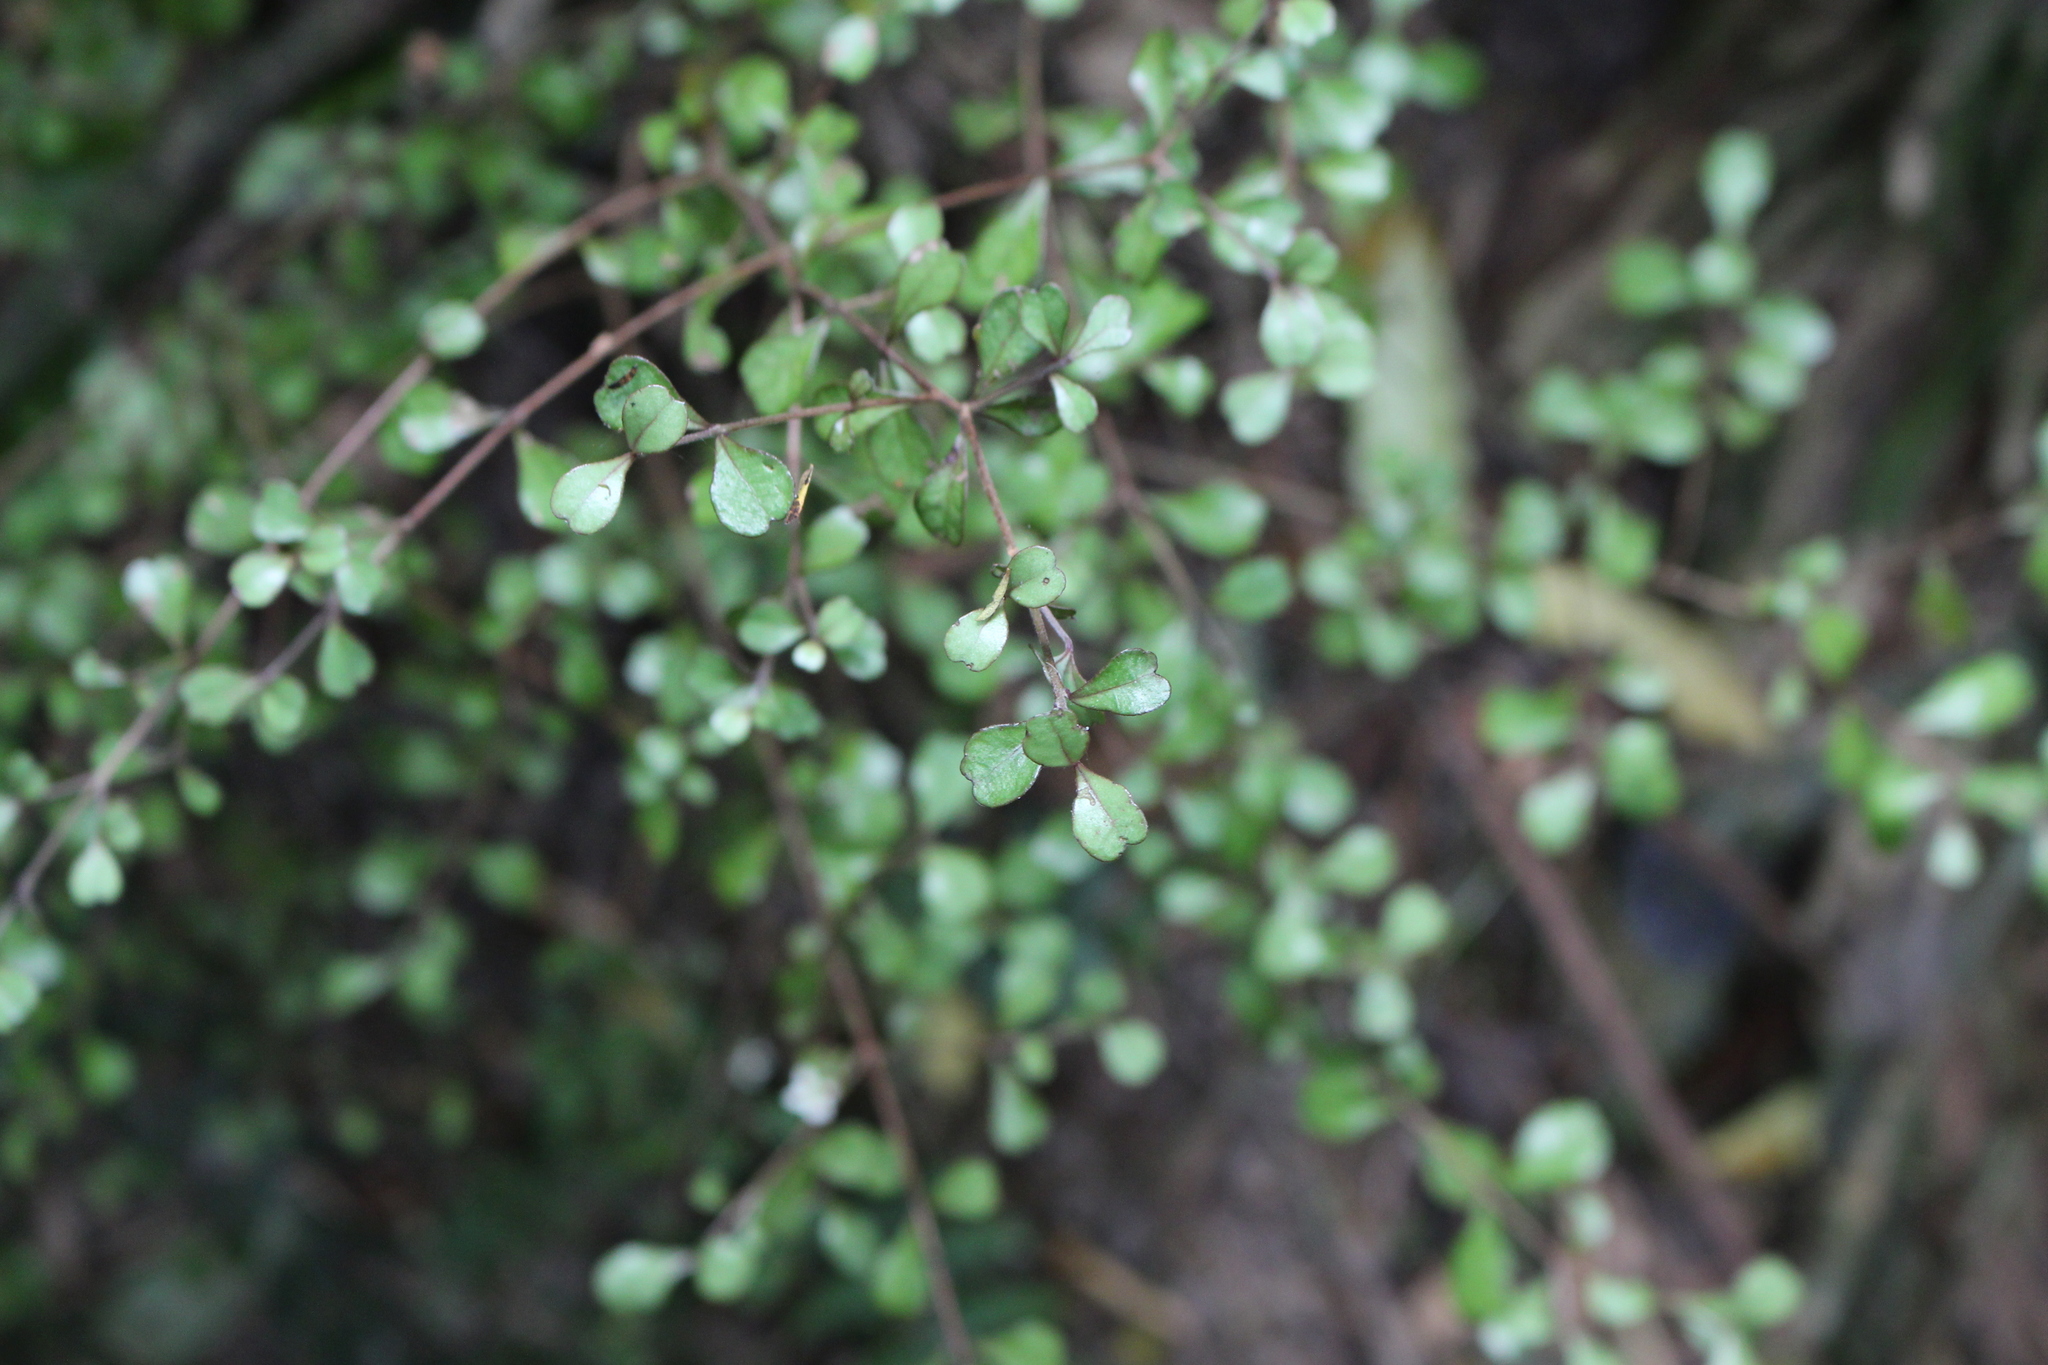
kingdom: Plantae
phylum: Tracheophyta
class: Magnoliopsida
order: Myrtales
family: Myrtaceae
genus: Lophomyrtus
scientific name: Lophomyrtus obcordata
